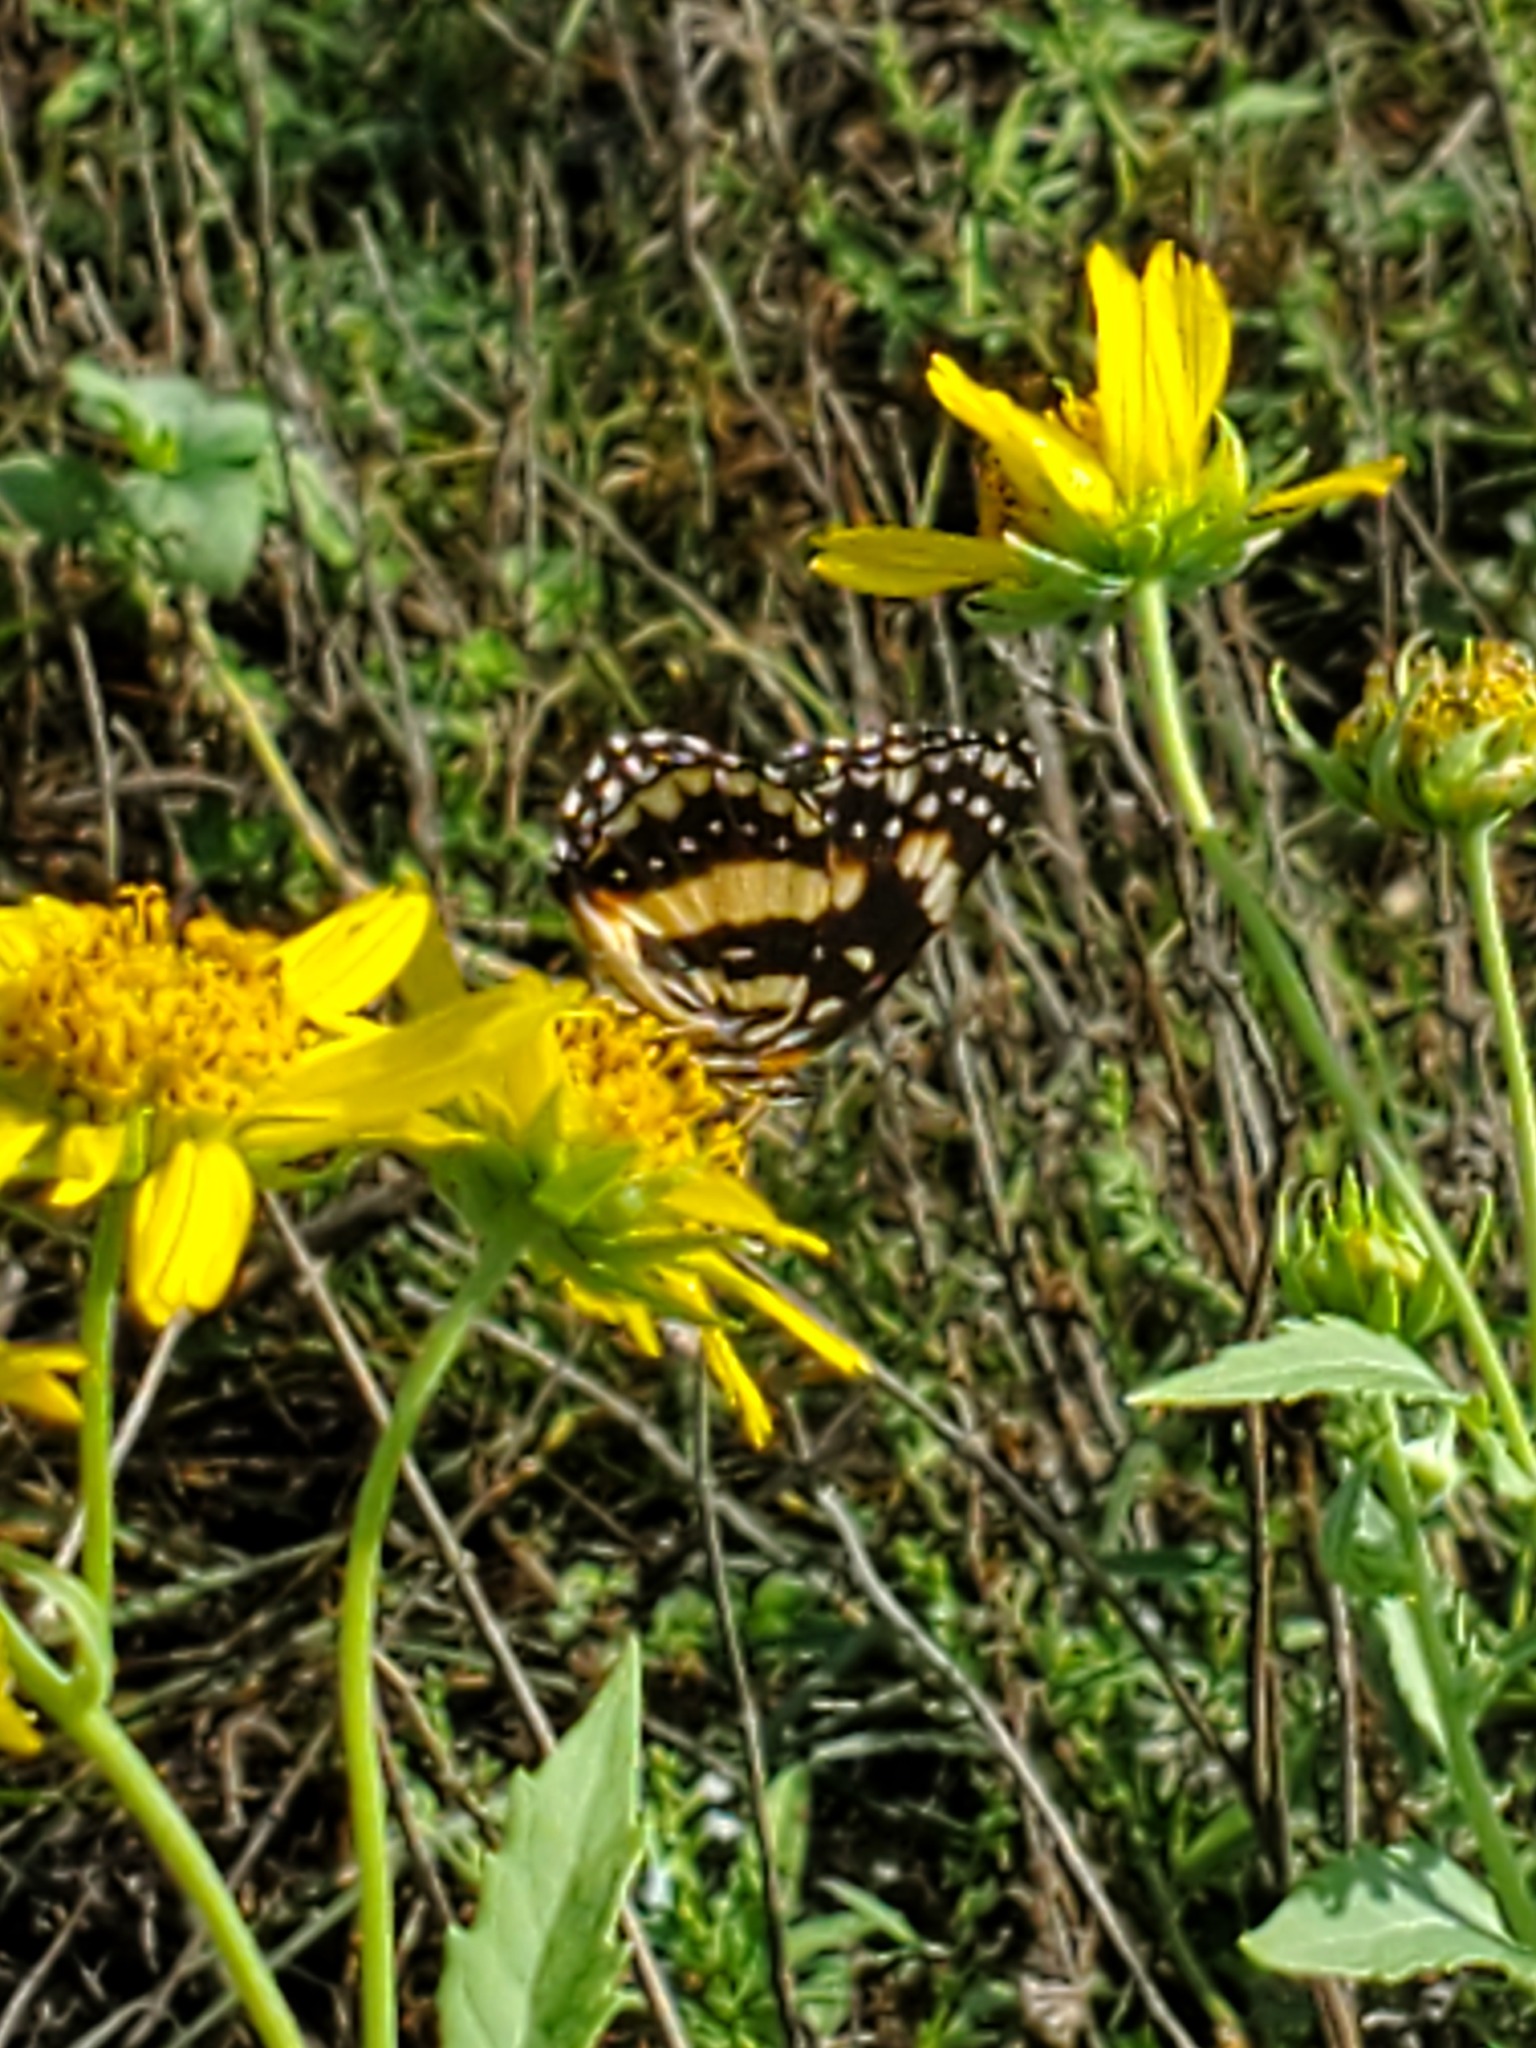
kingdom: Animalia
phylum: Arthropoda
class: Insecta
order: Lepidoptera
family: Nymphalidae
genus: Chlosyne
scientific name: Chlosyne lacinia
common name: Bordered patch
